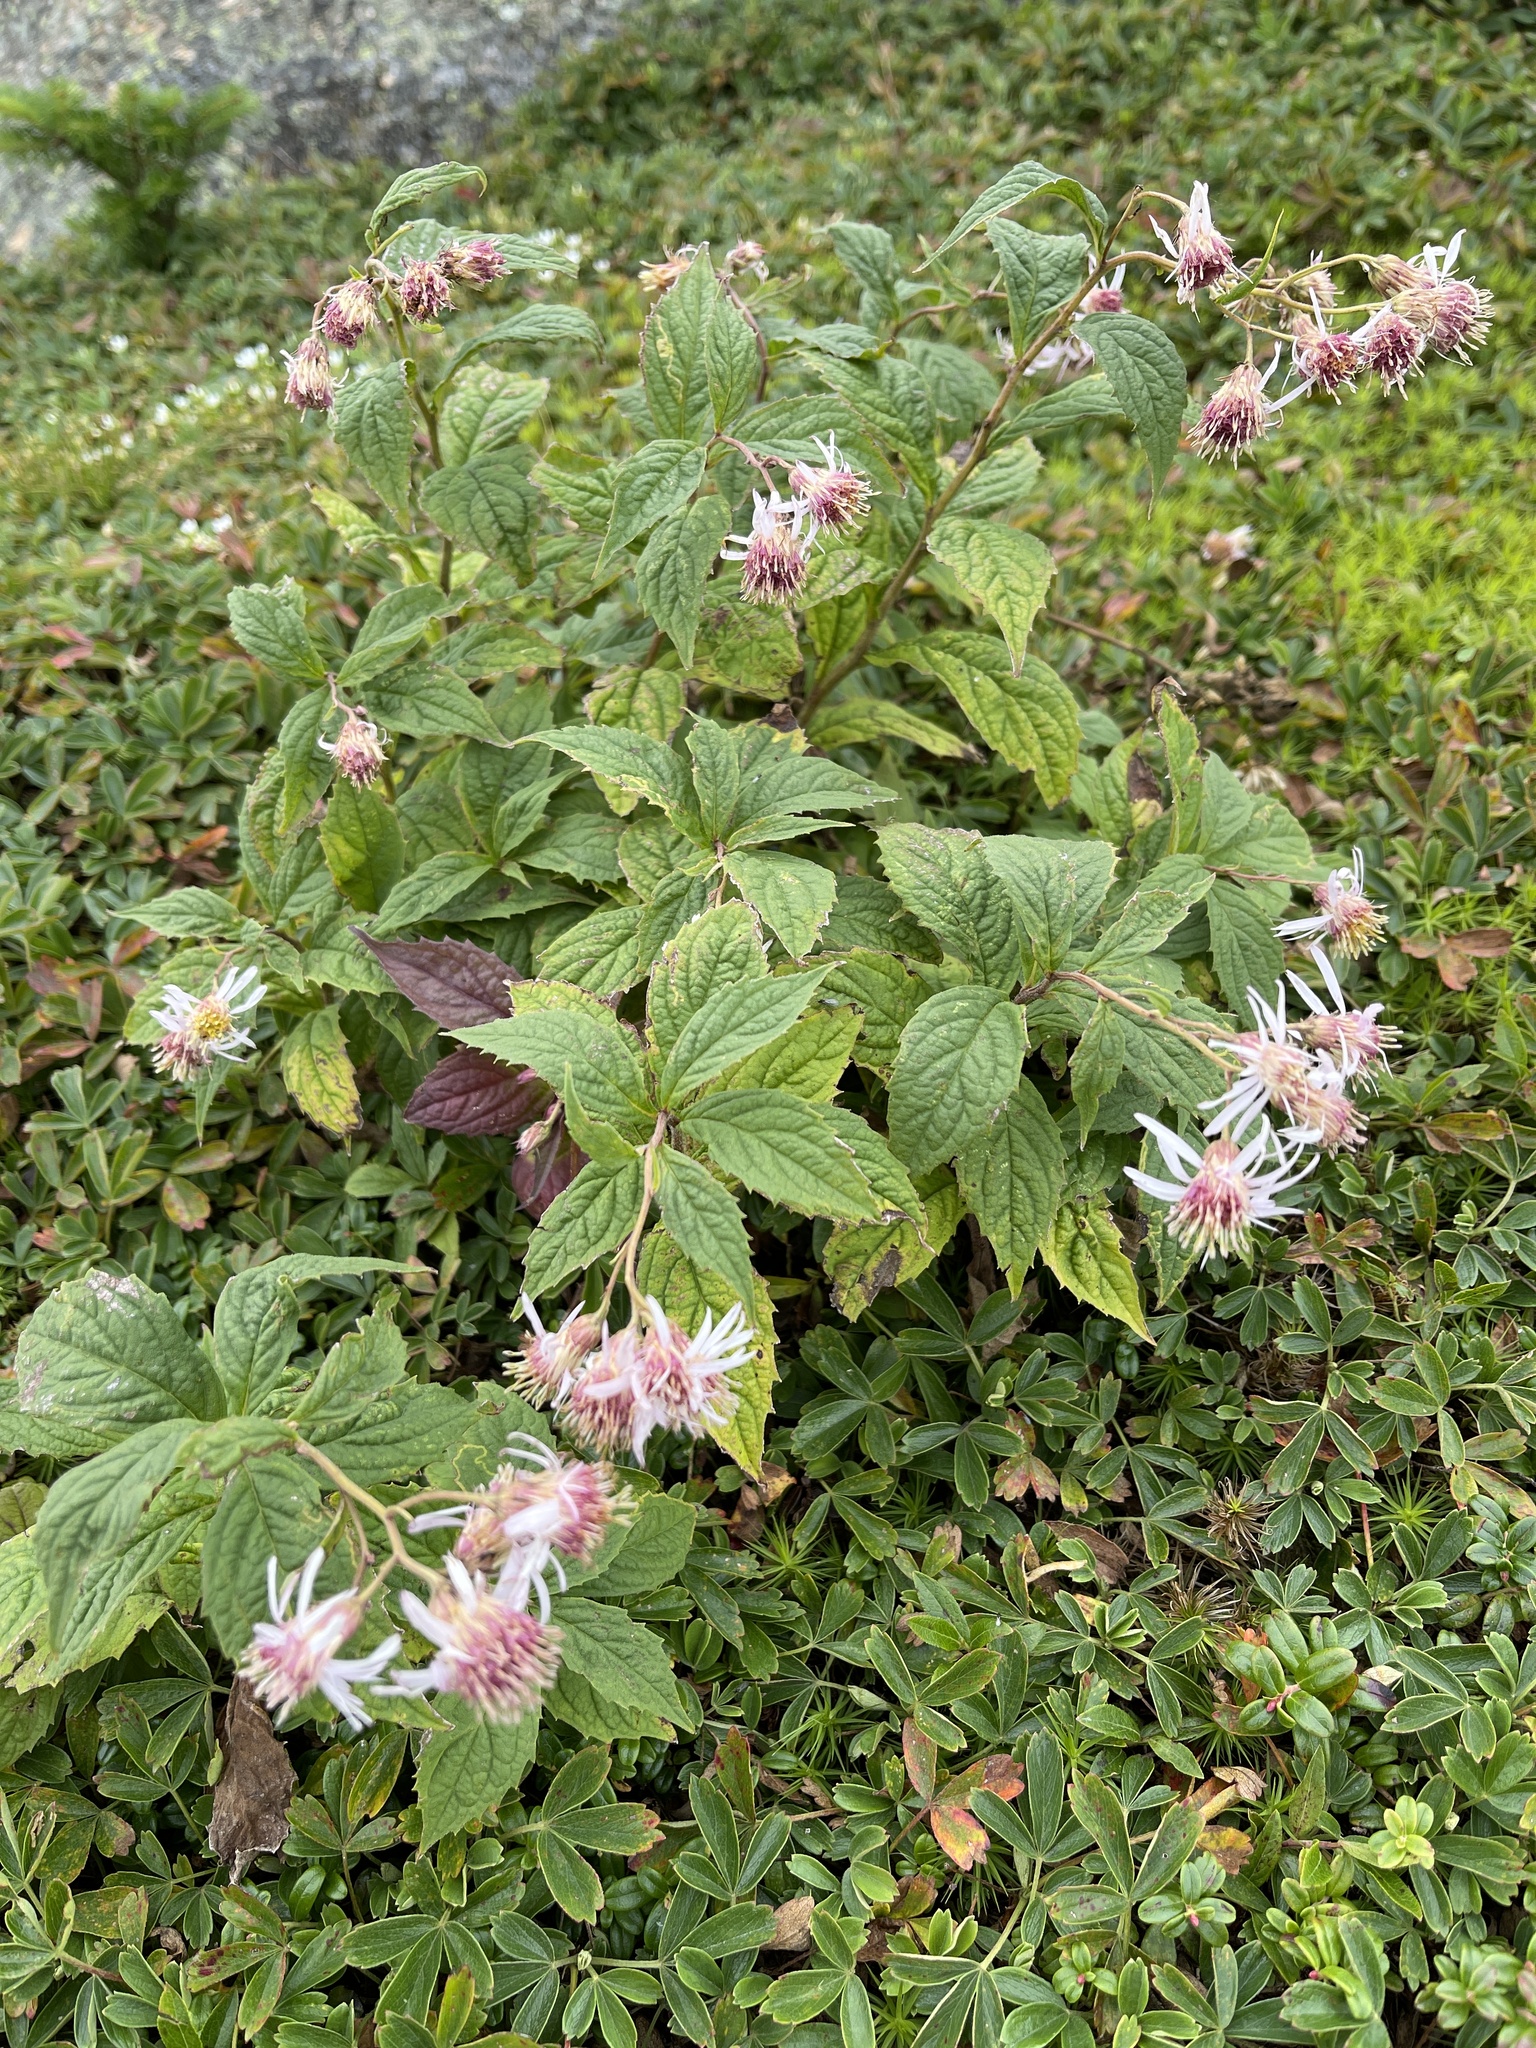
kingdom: Plantae
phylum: Tracheophyta
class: Magnoliopsida
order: Asterales
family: Asteraceae
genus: Oclemena
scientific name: Oclemena acuminata
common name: Mountain aster
